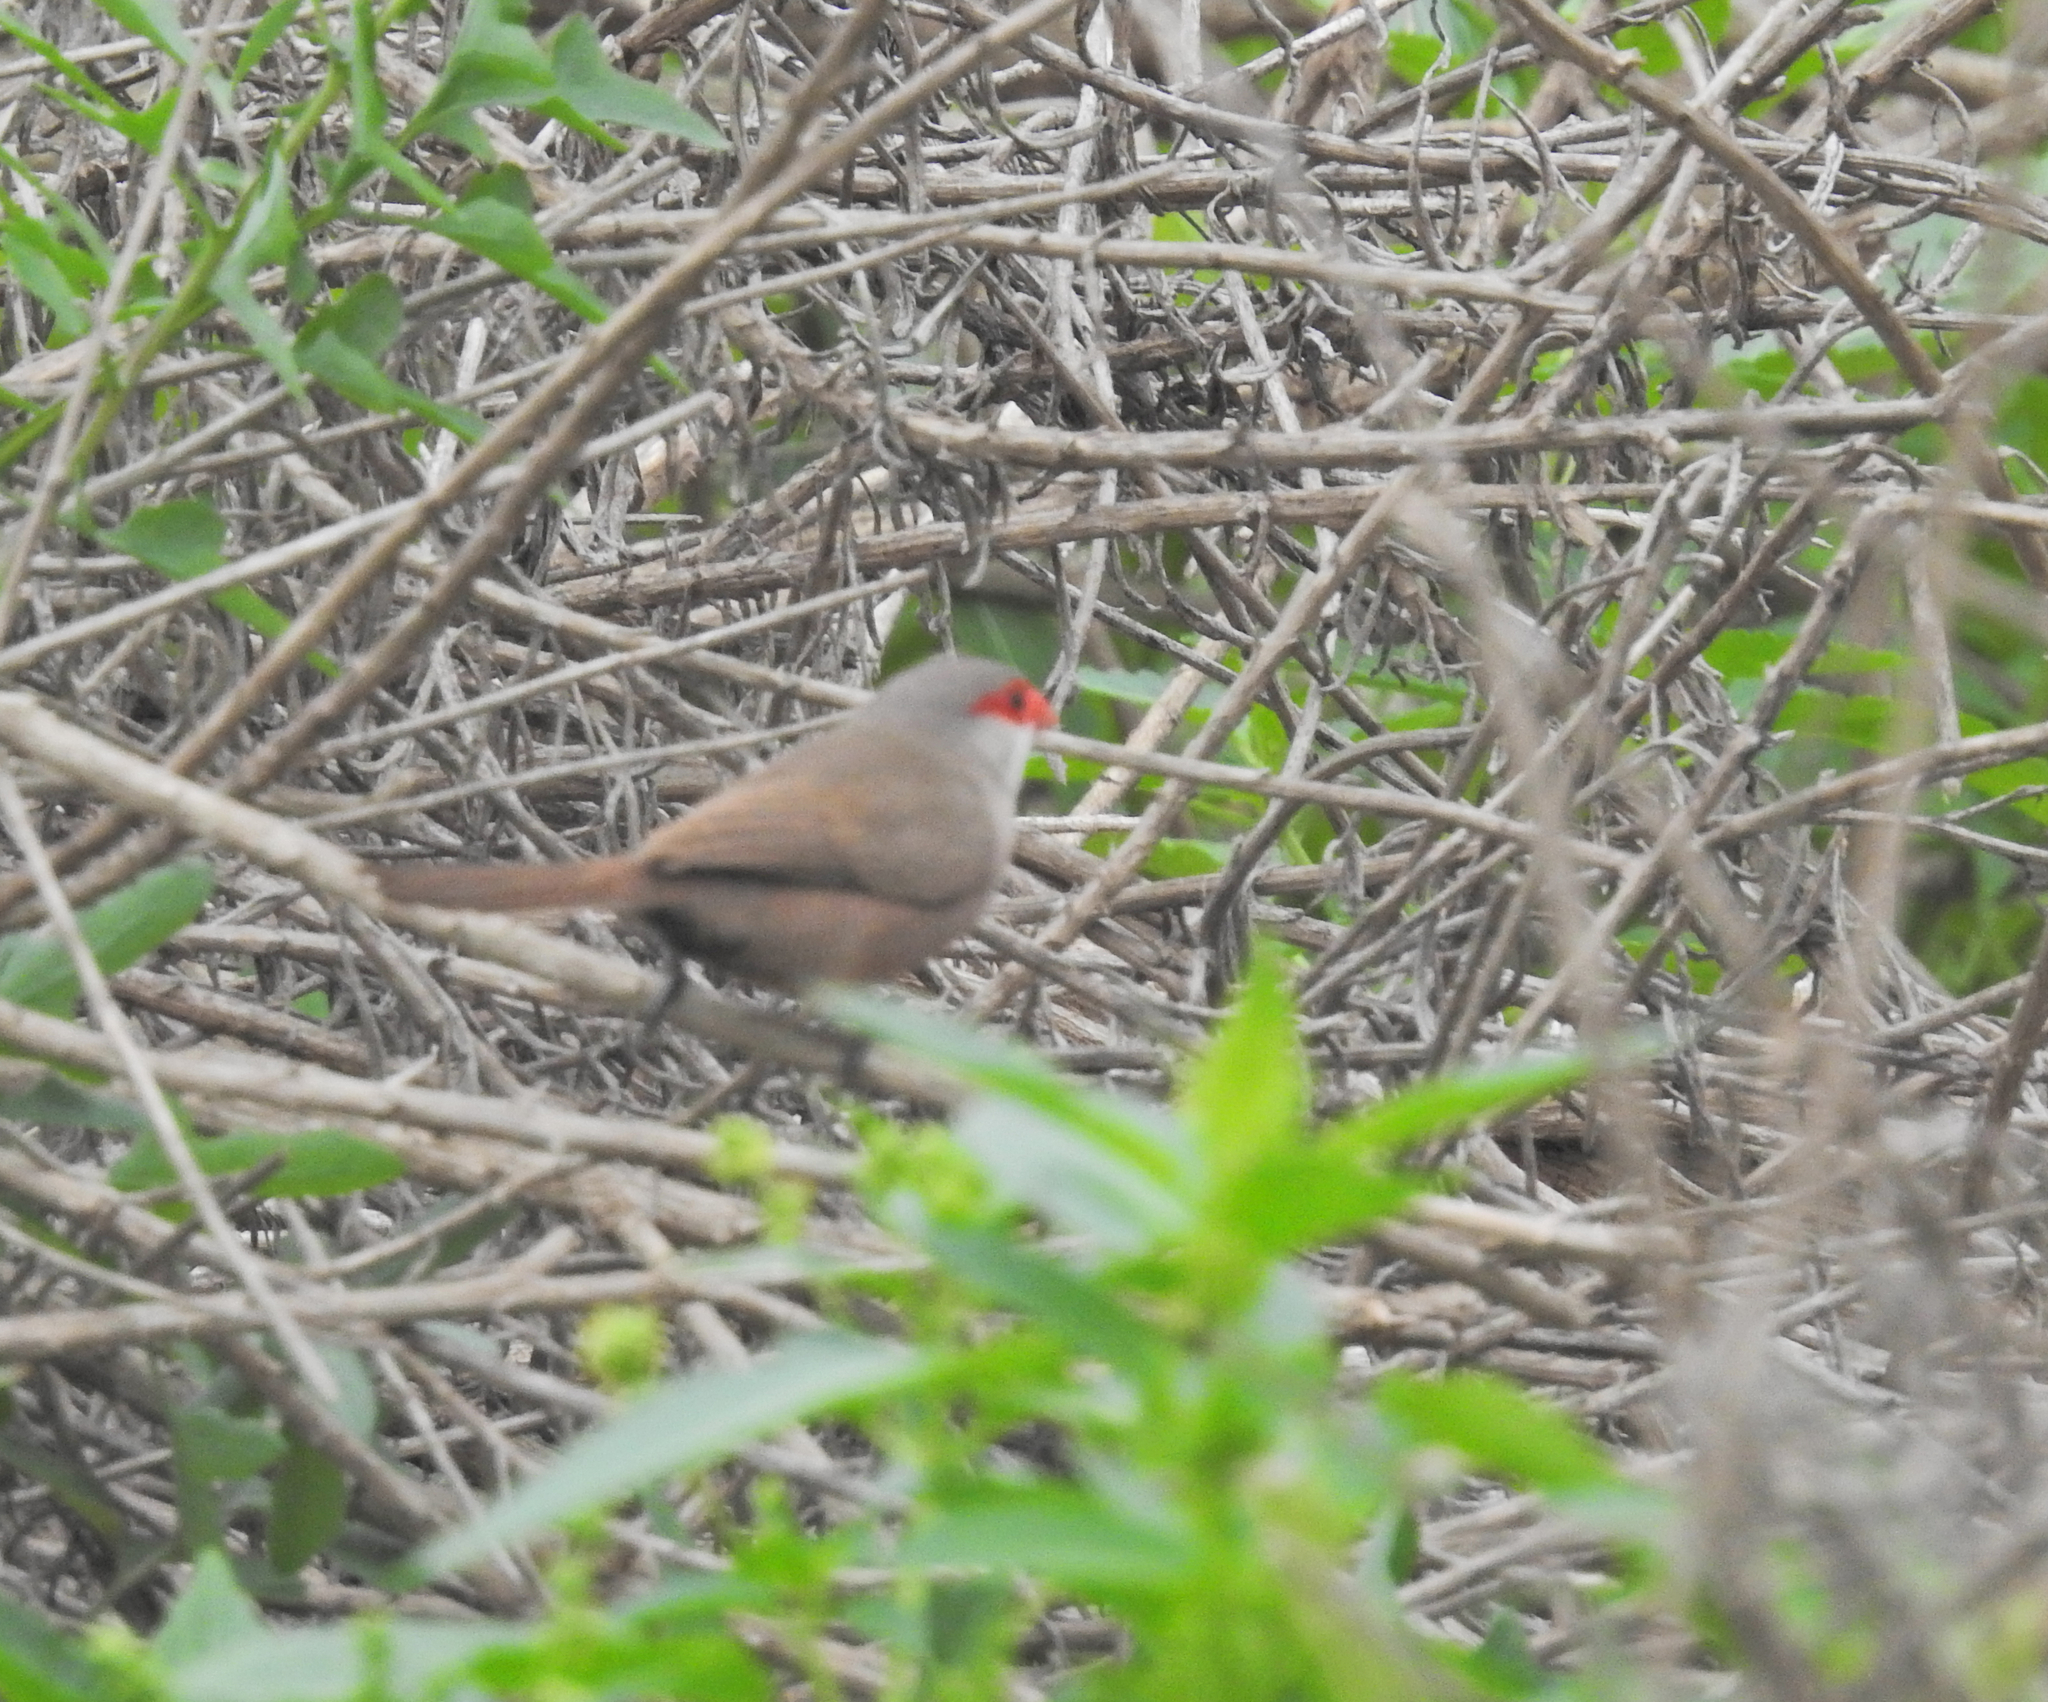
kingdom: Animalia
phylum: Chordata
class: Aves
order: Passeriformes
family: Estrildidae
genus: Estrilda
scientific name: Estrilda astrild
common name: Common waxbill
